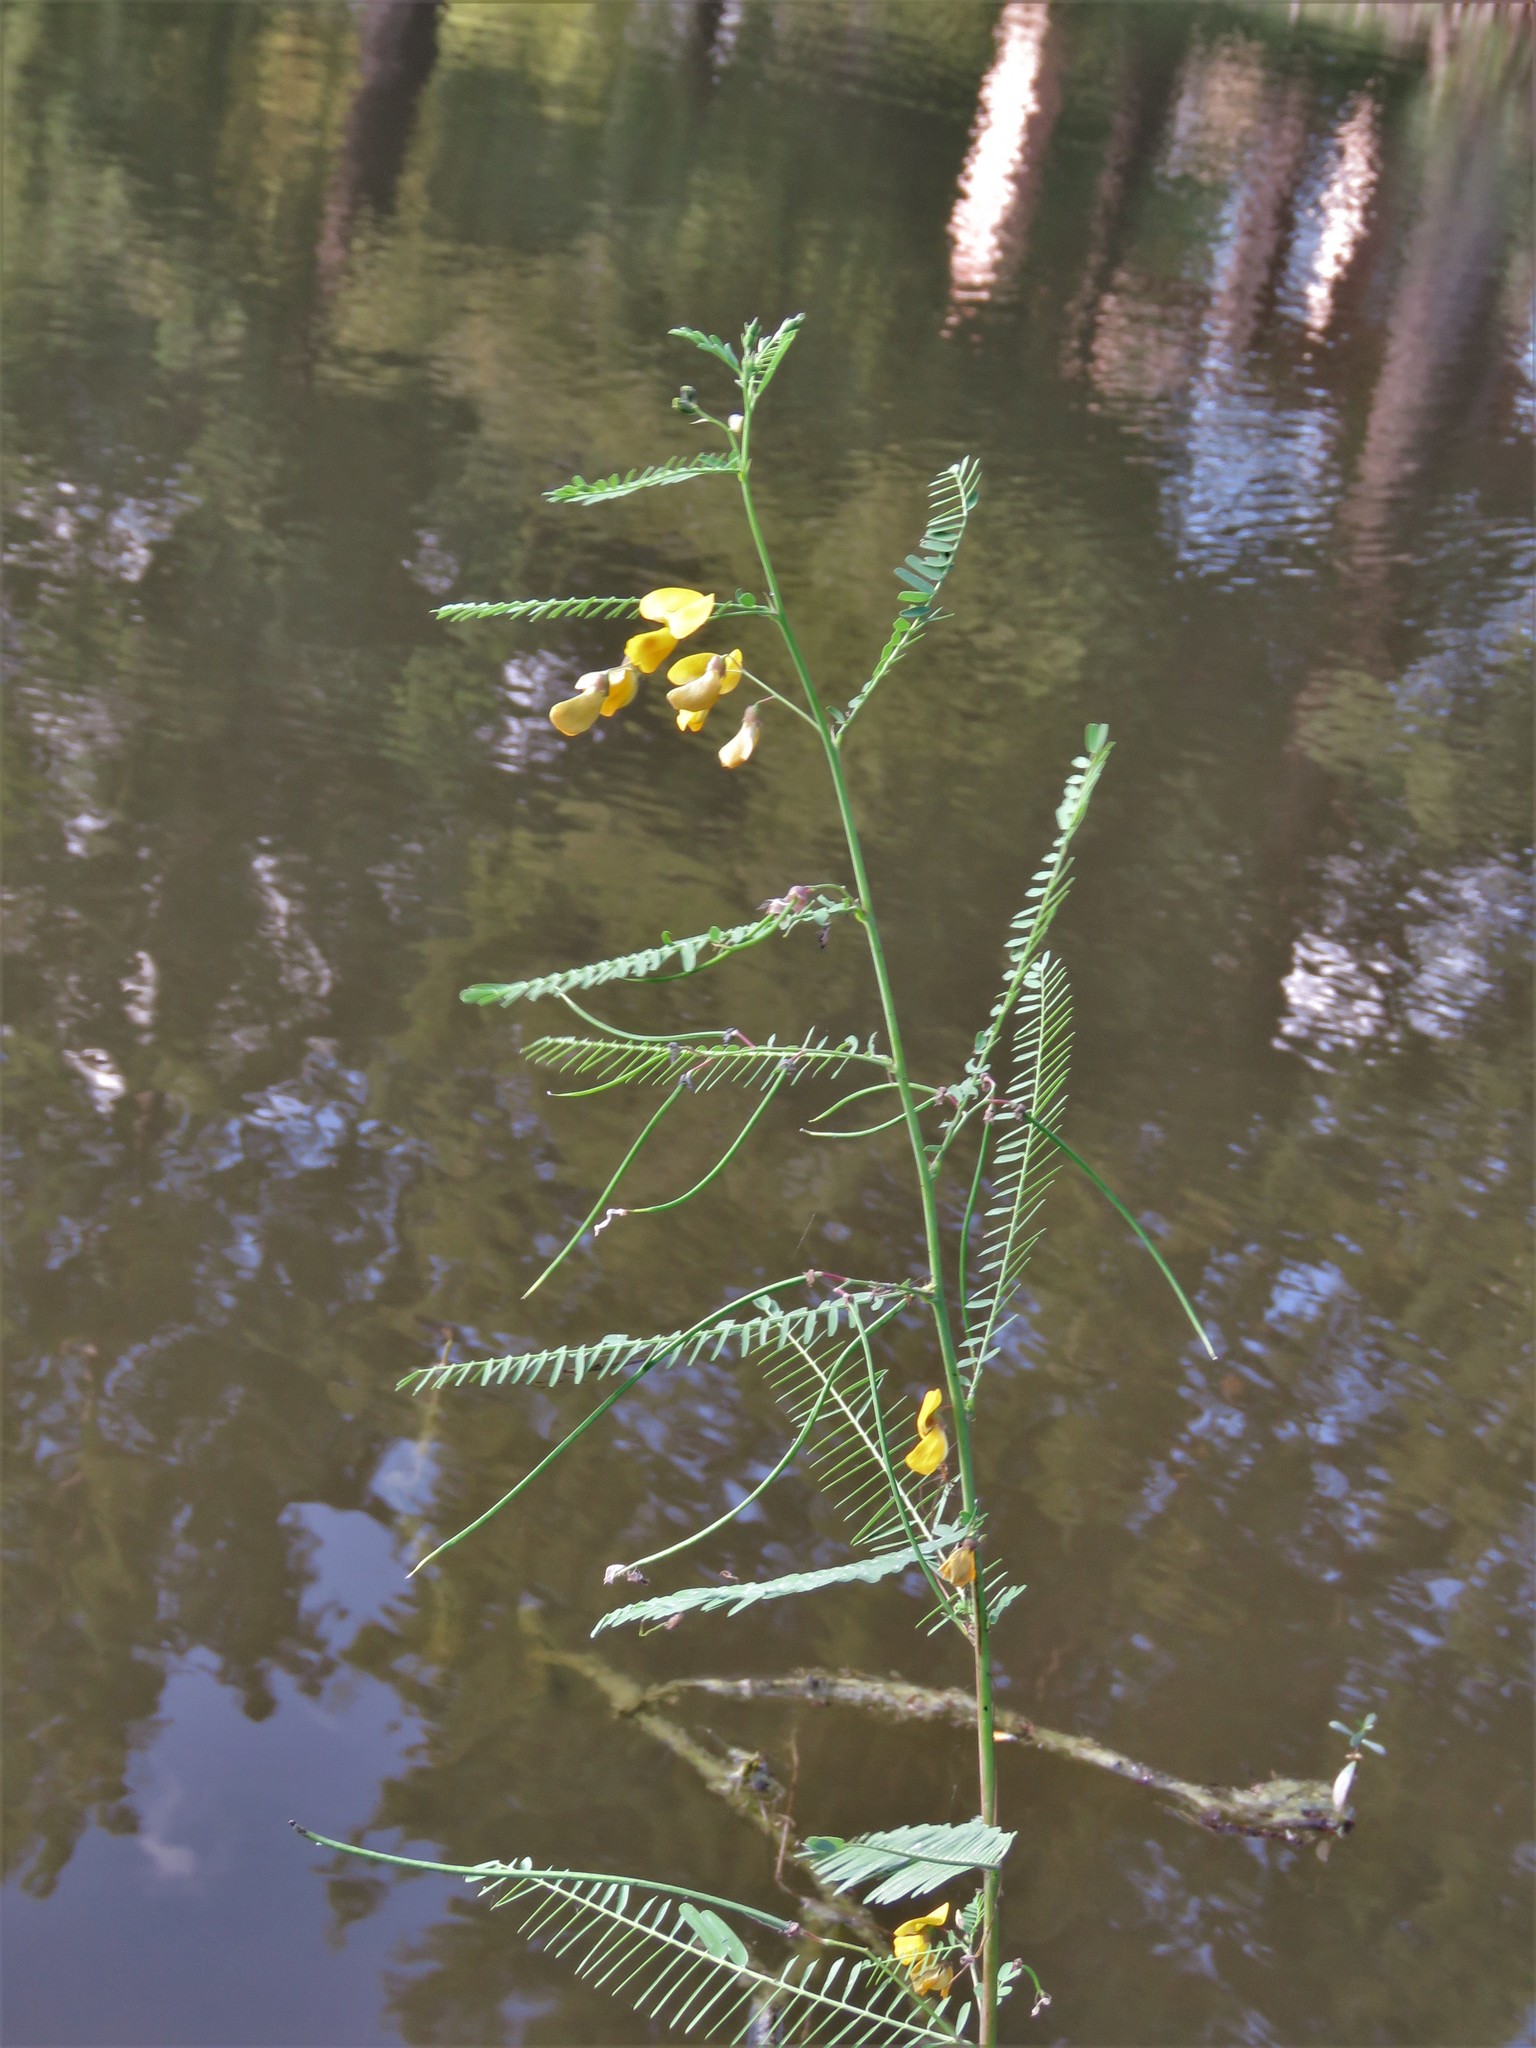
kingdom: Plantae
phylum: Tracheophyta
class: Magnoliopsida
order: Fabales
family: Fabaceae
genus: Sesbania
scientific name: Sesbania herbacea
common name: Bigpod sesbania
